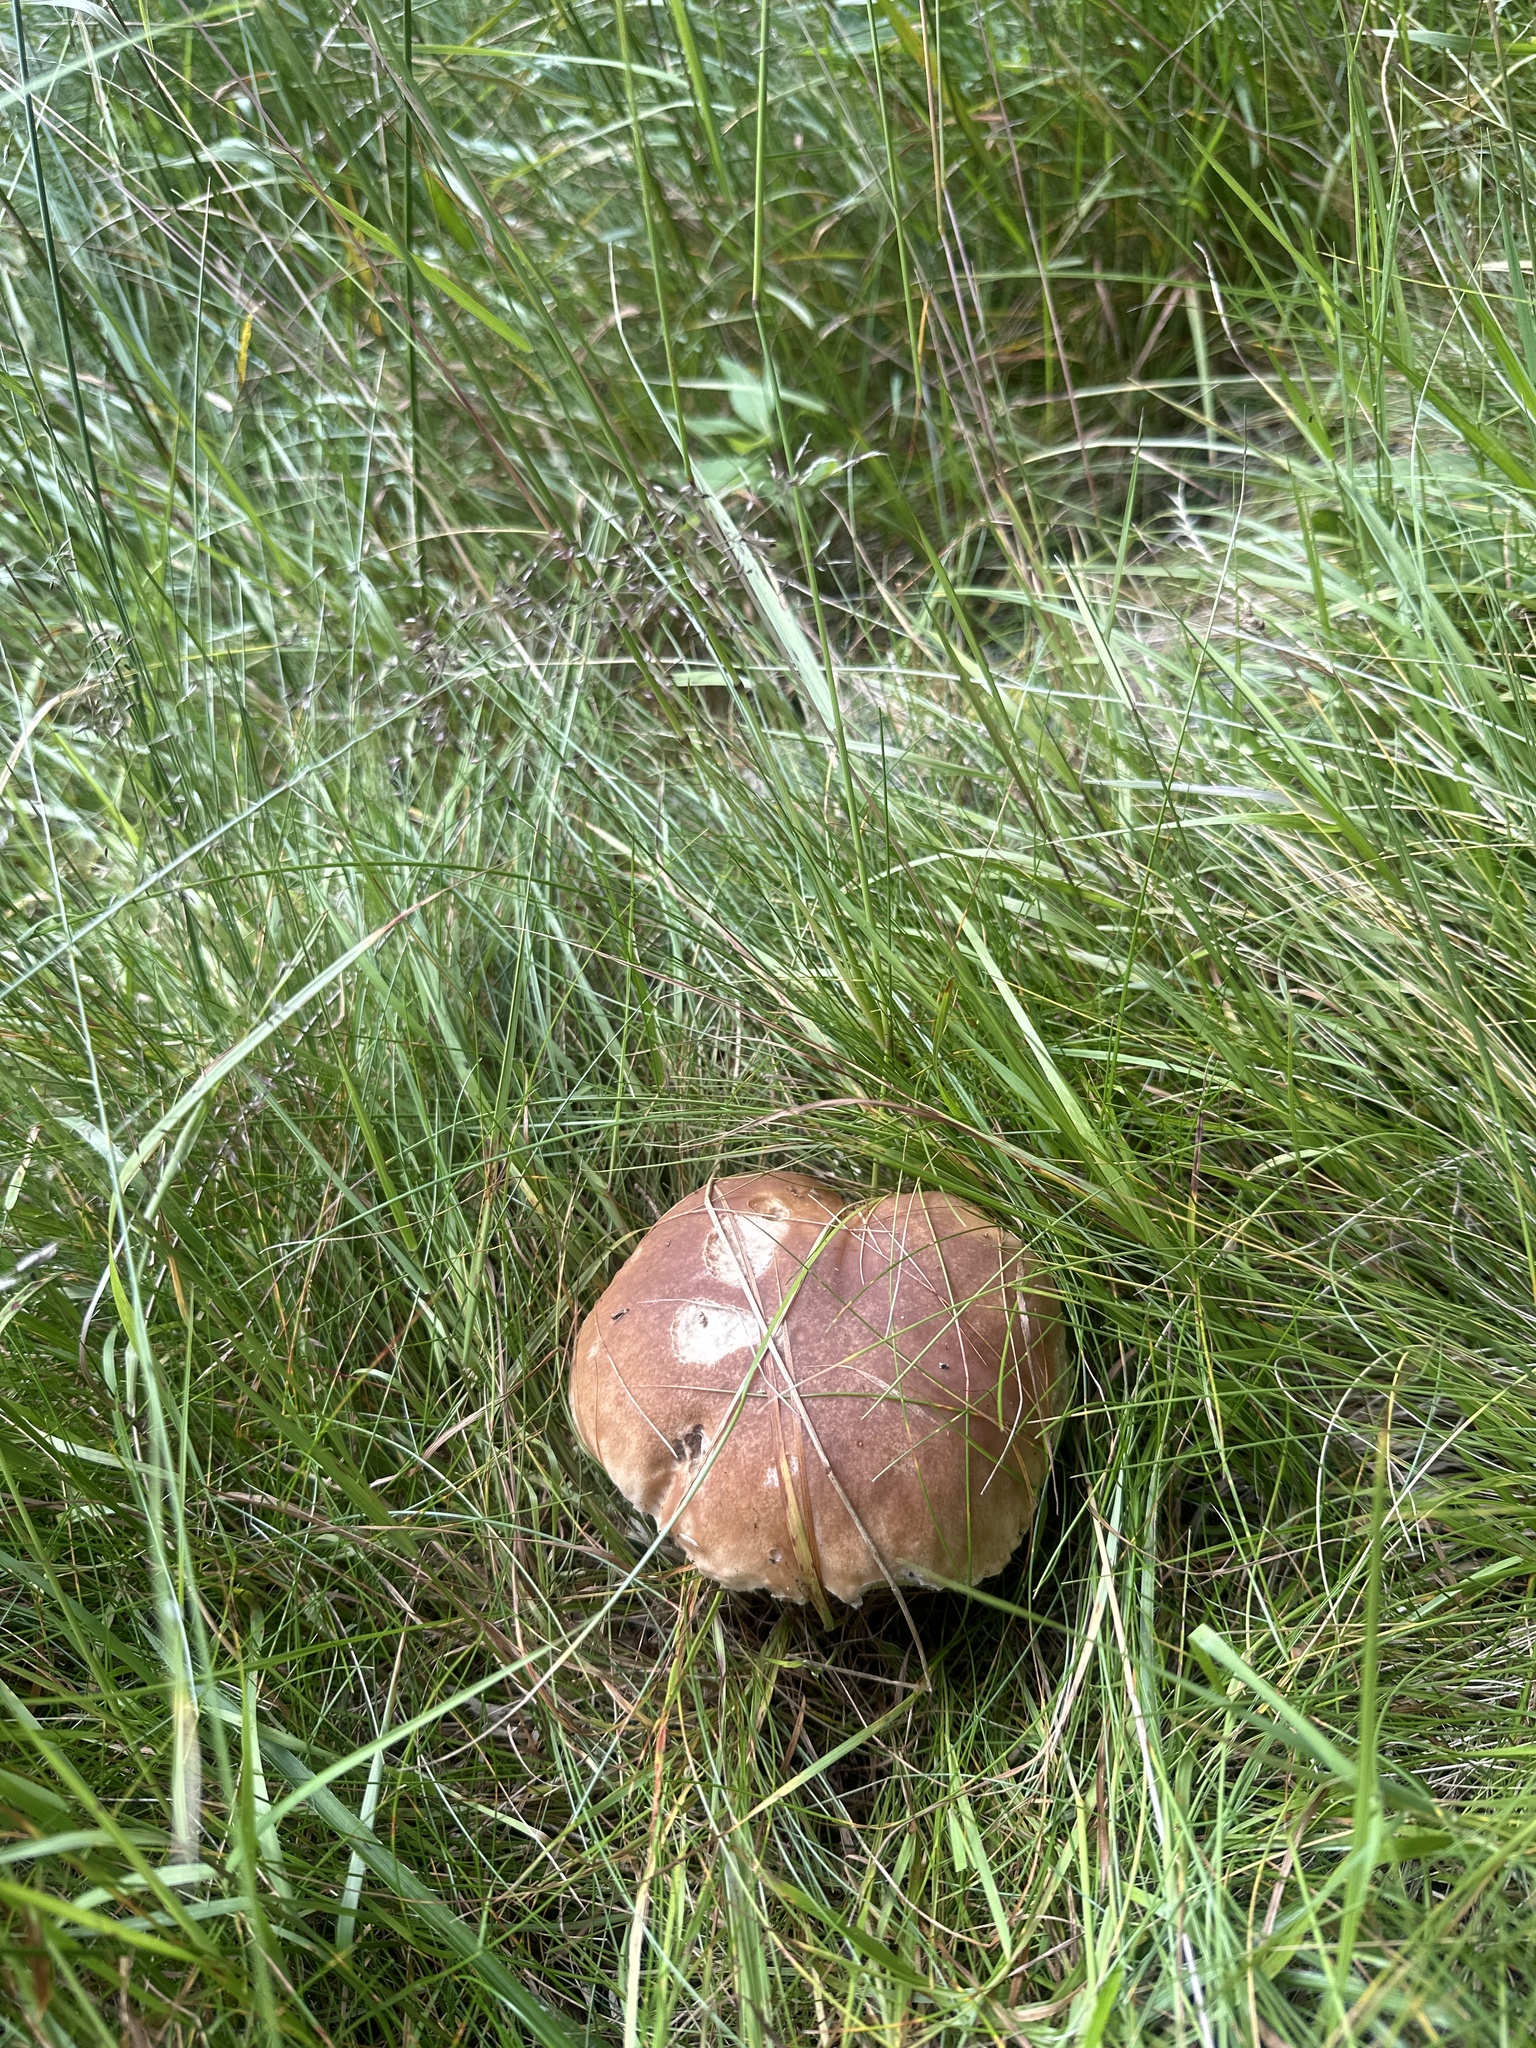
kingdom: Fungi
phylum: Basidiomycota
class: Agaricomycetes
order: Boletales
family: Boletaceae
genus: Boletus
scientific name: Boletus edulis
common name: Cep
